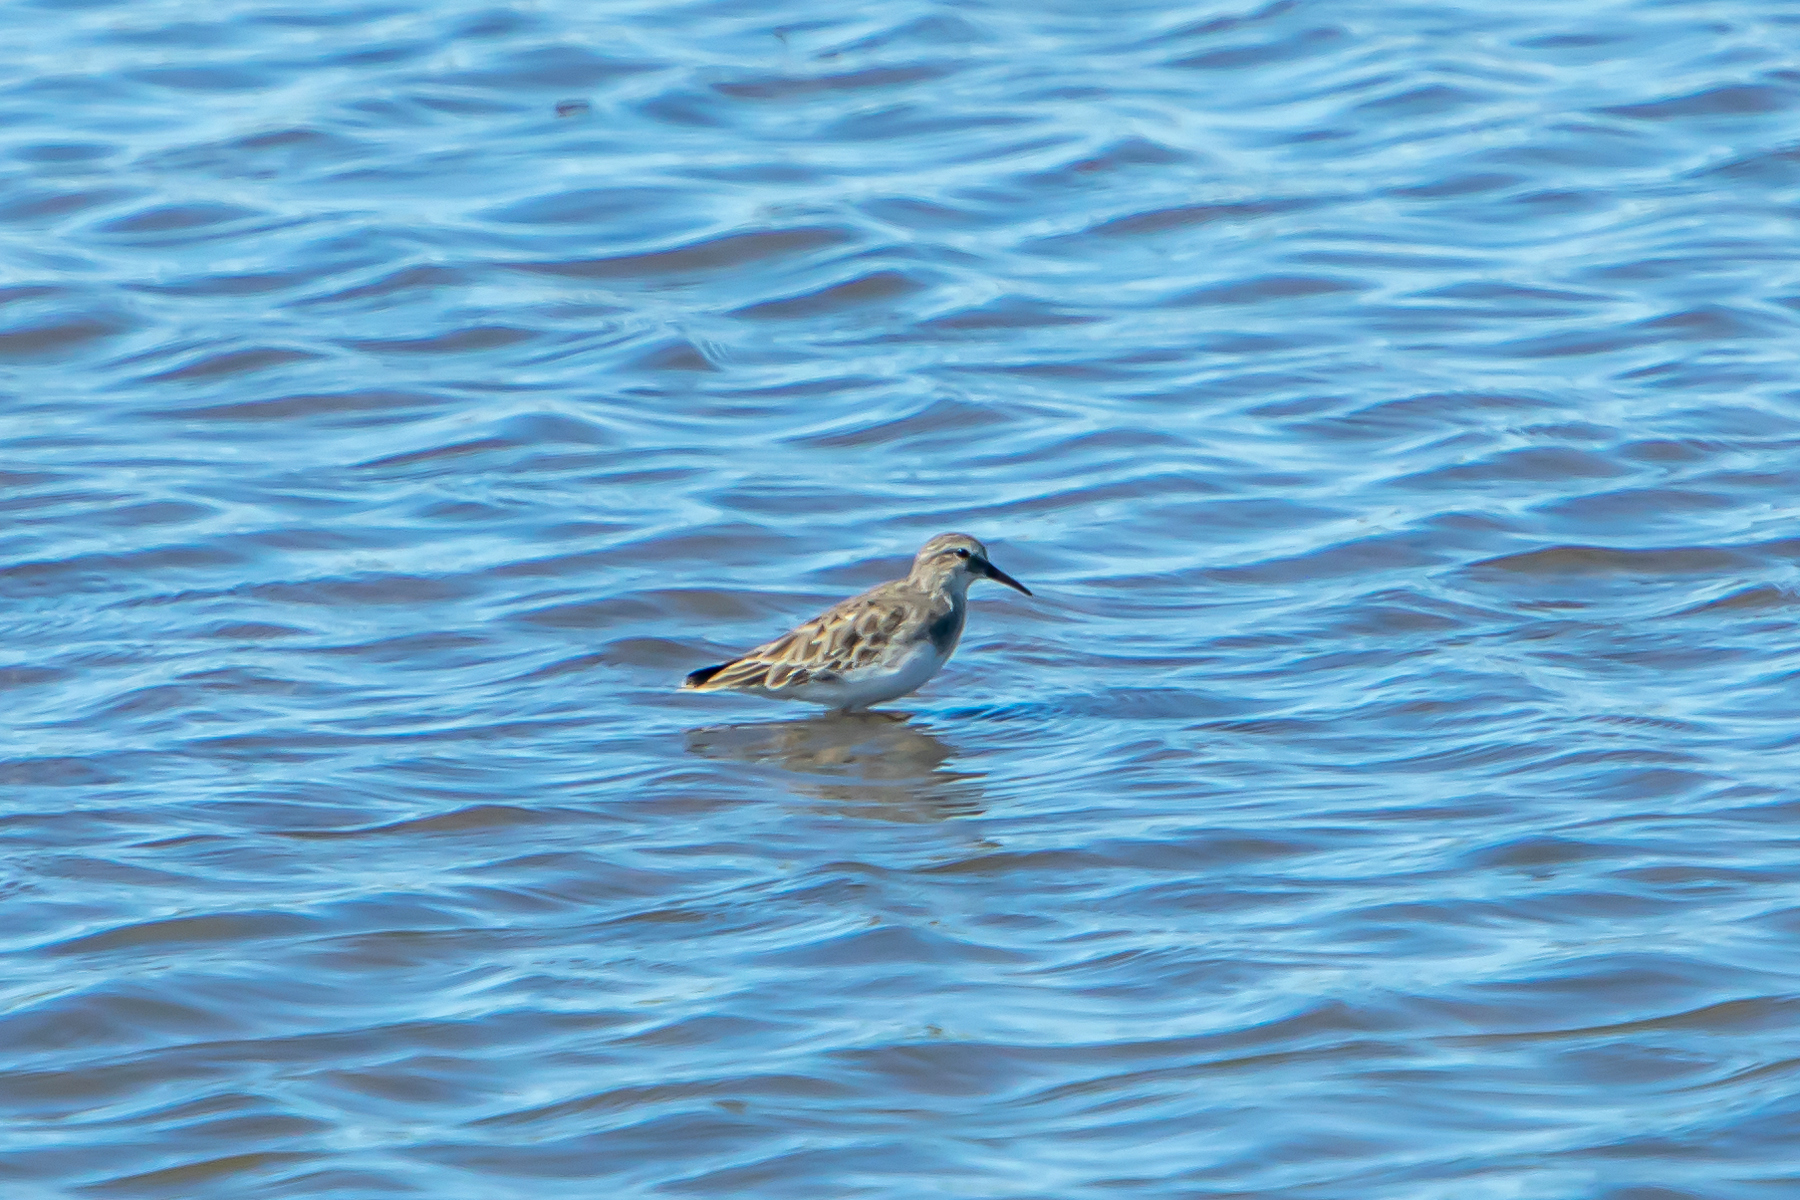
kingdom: Animalia
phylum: Chordata
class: Aves
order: Charadriiformes
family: Scolopacidae
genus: Calidris
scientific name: Calidris melanotos
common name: Pectoral sandpiper
